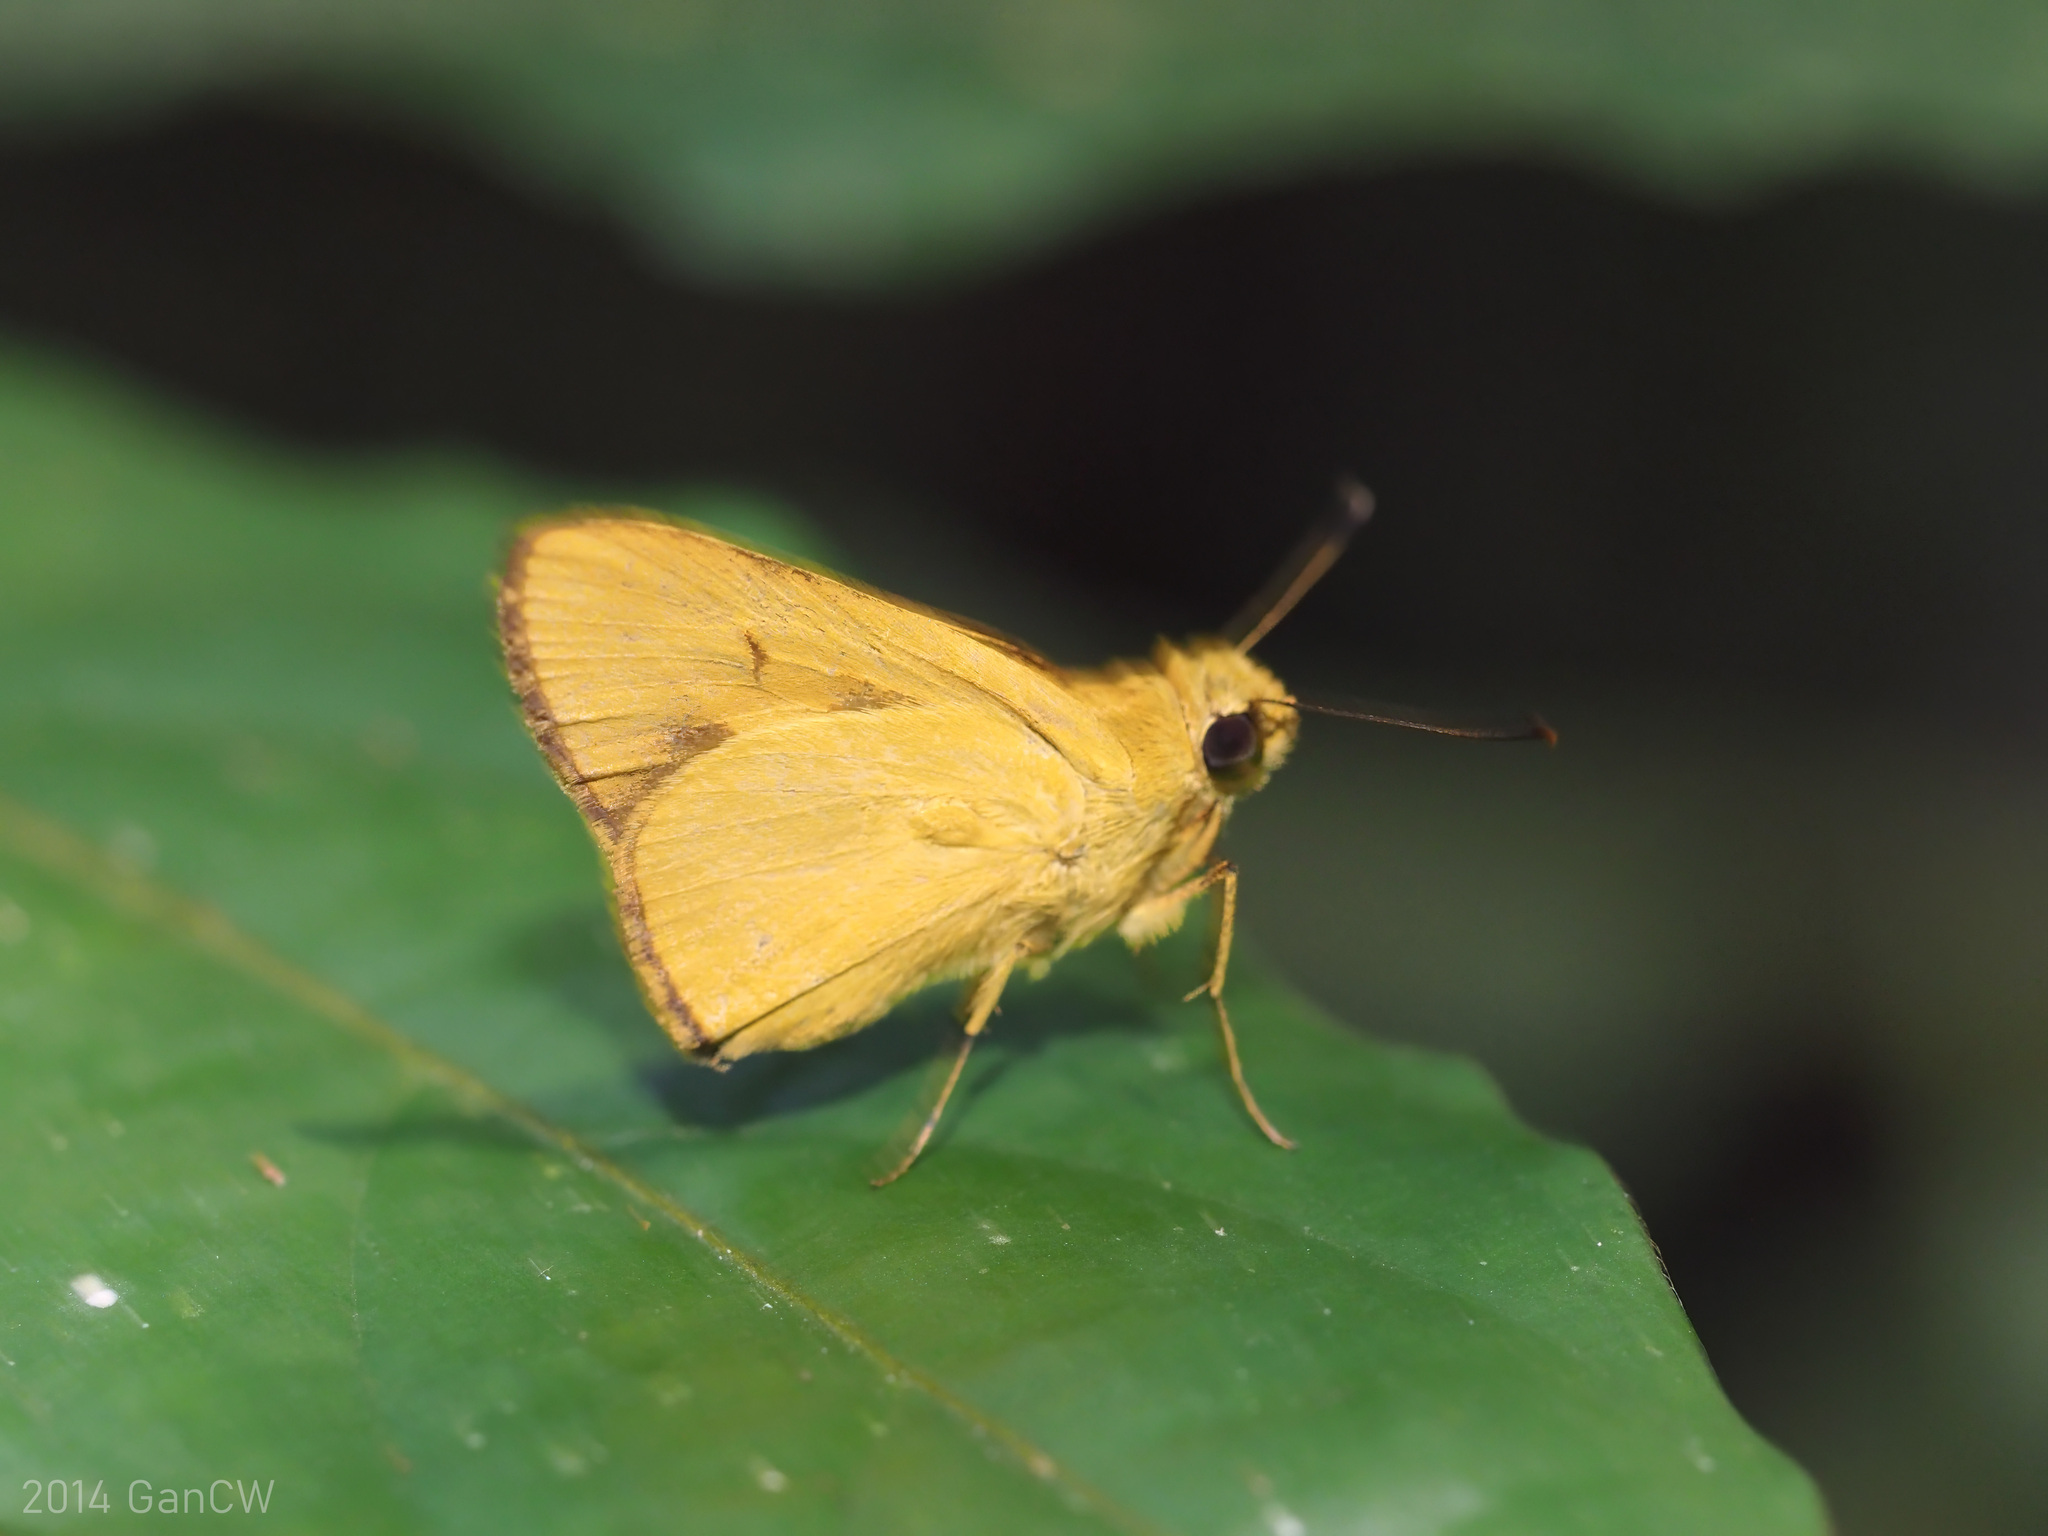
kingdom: Animalia
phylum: Arthropoda
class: Insecta
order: Lepidoptera
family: Hesperiidae
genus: Cupitha
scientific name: Cupitha purreea
